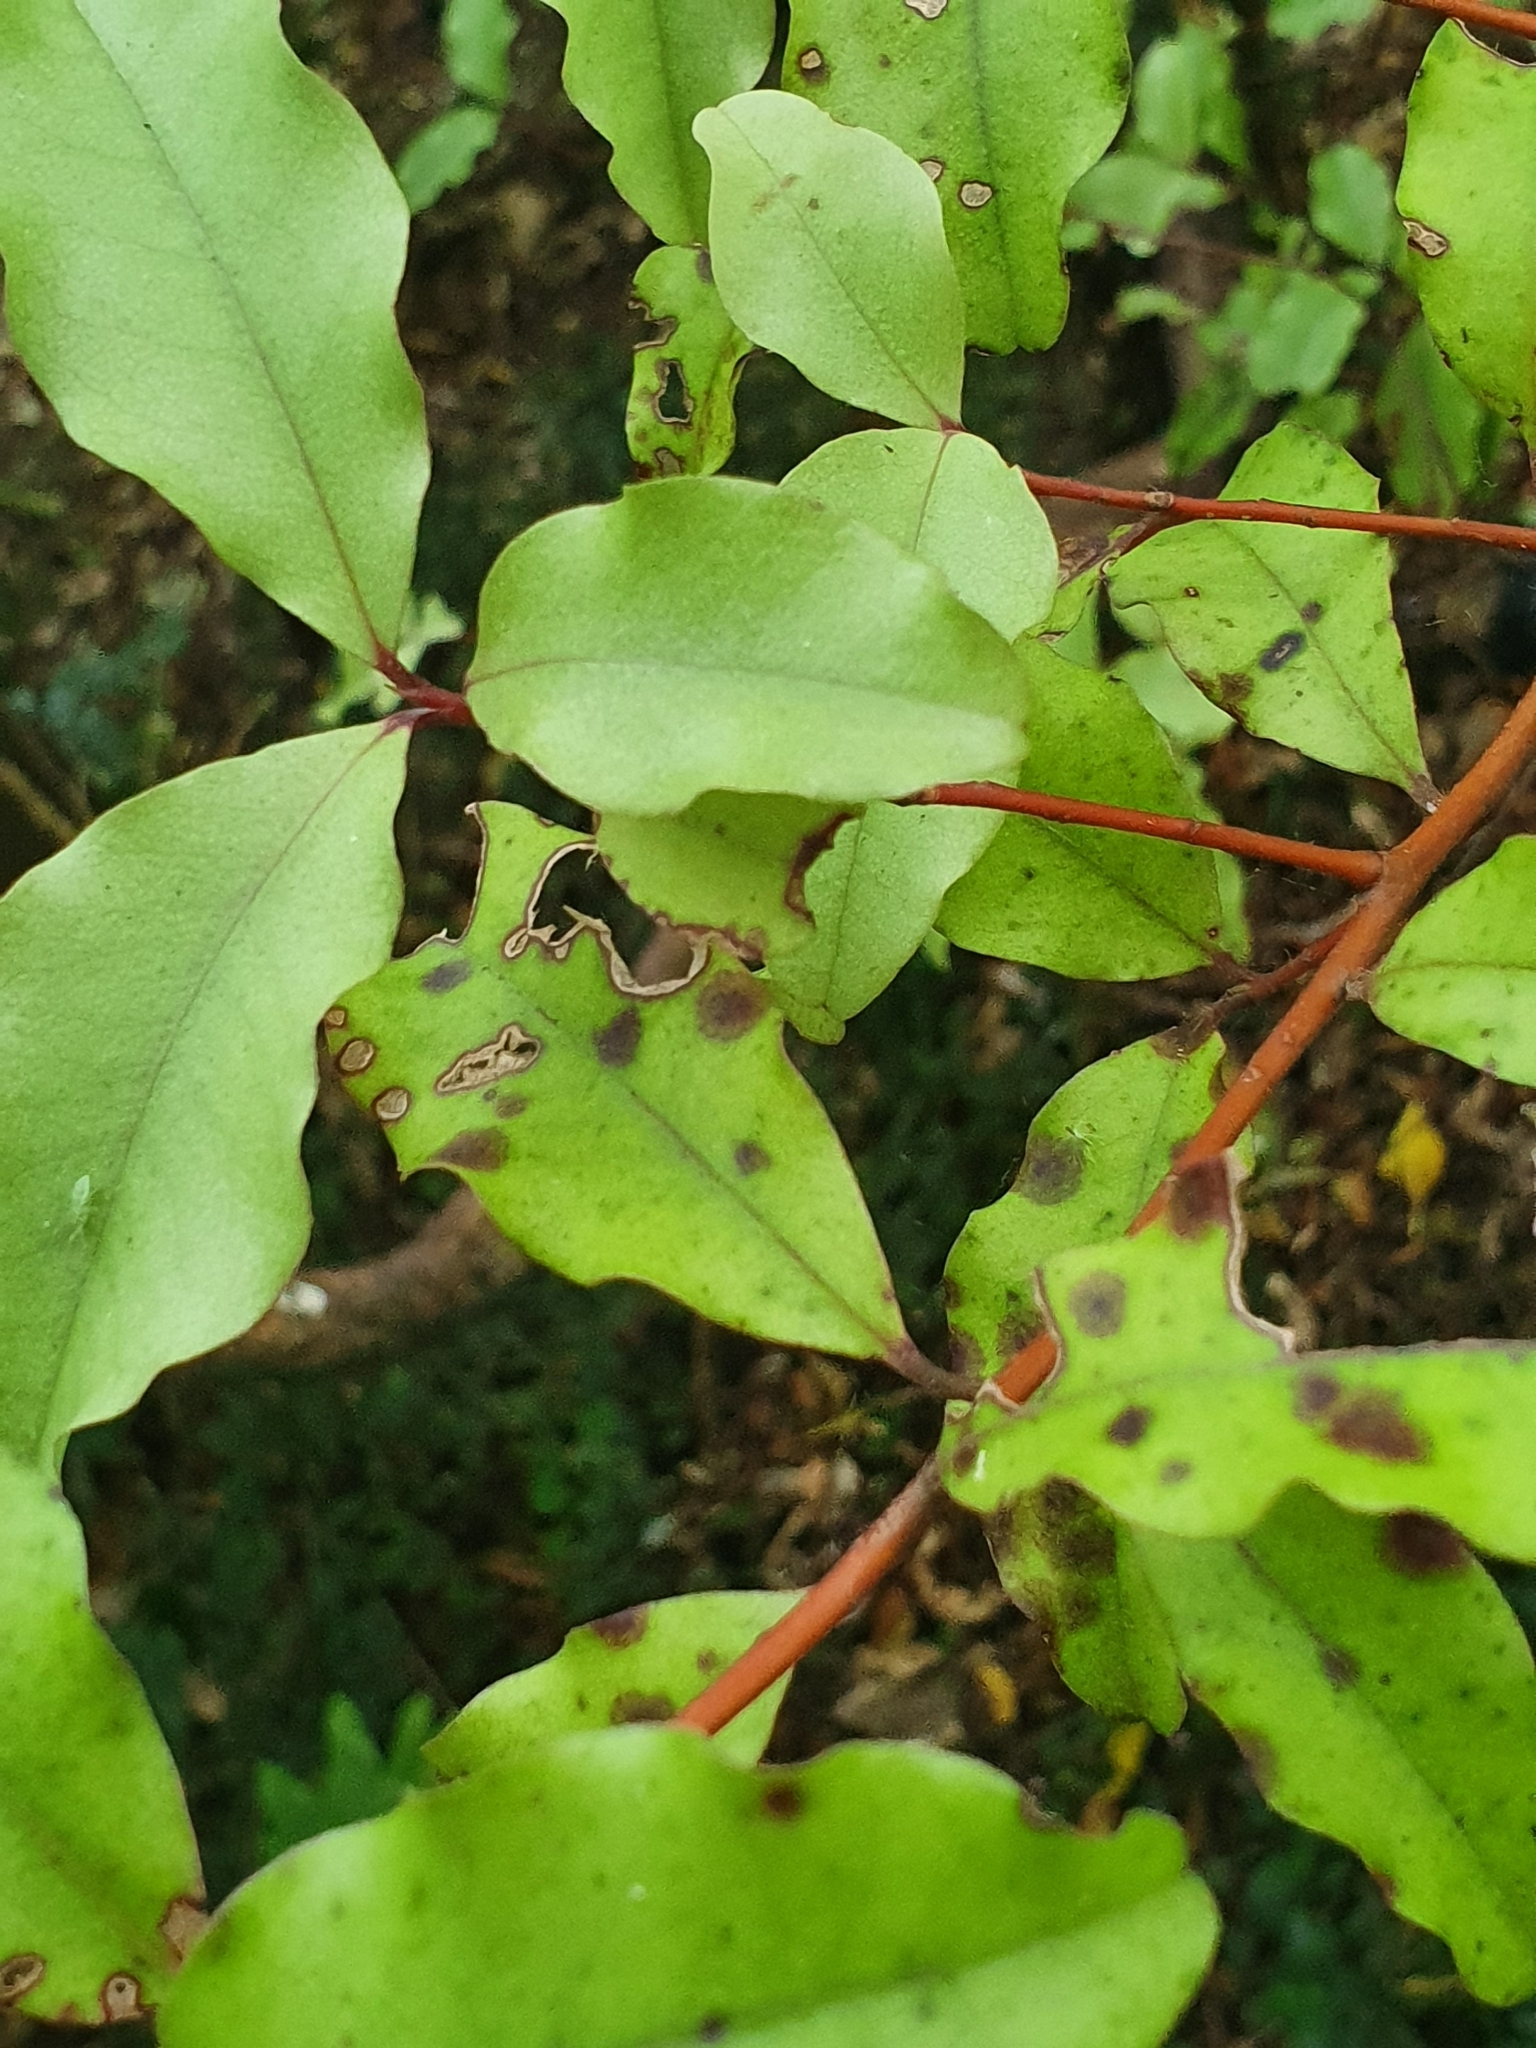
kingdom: Plantae
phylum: Tracheophyta
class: Magnoliopsida
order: Ericales
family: Primulaceae
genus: Myrsine
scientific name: Myrsine australis
